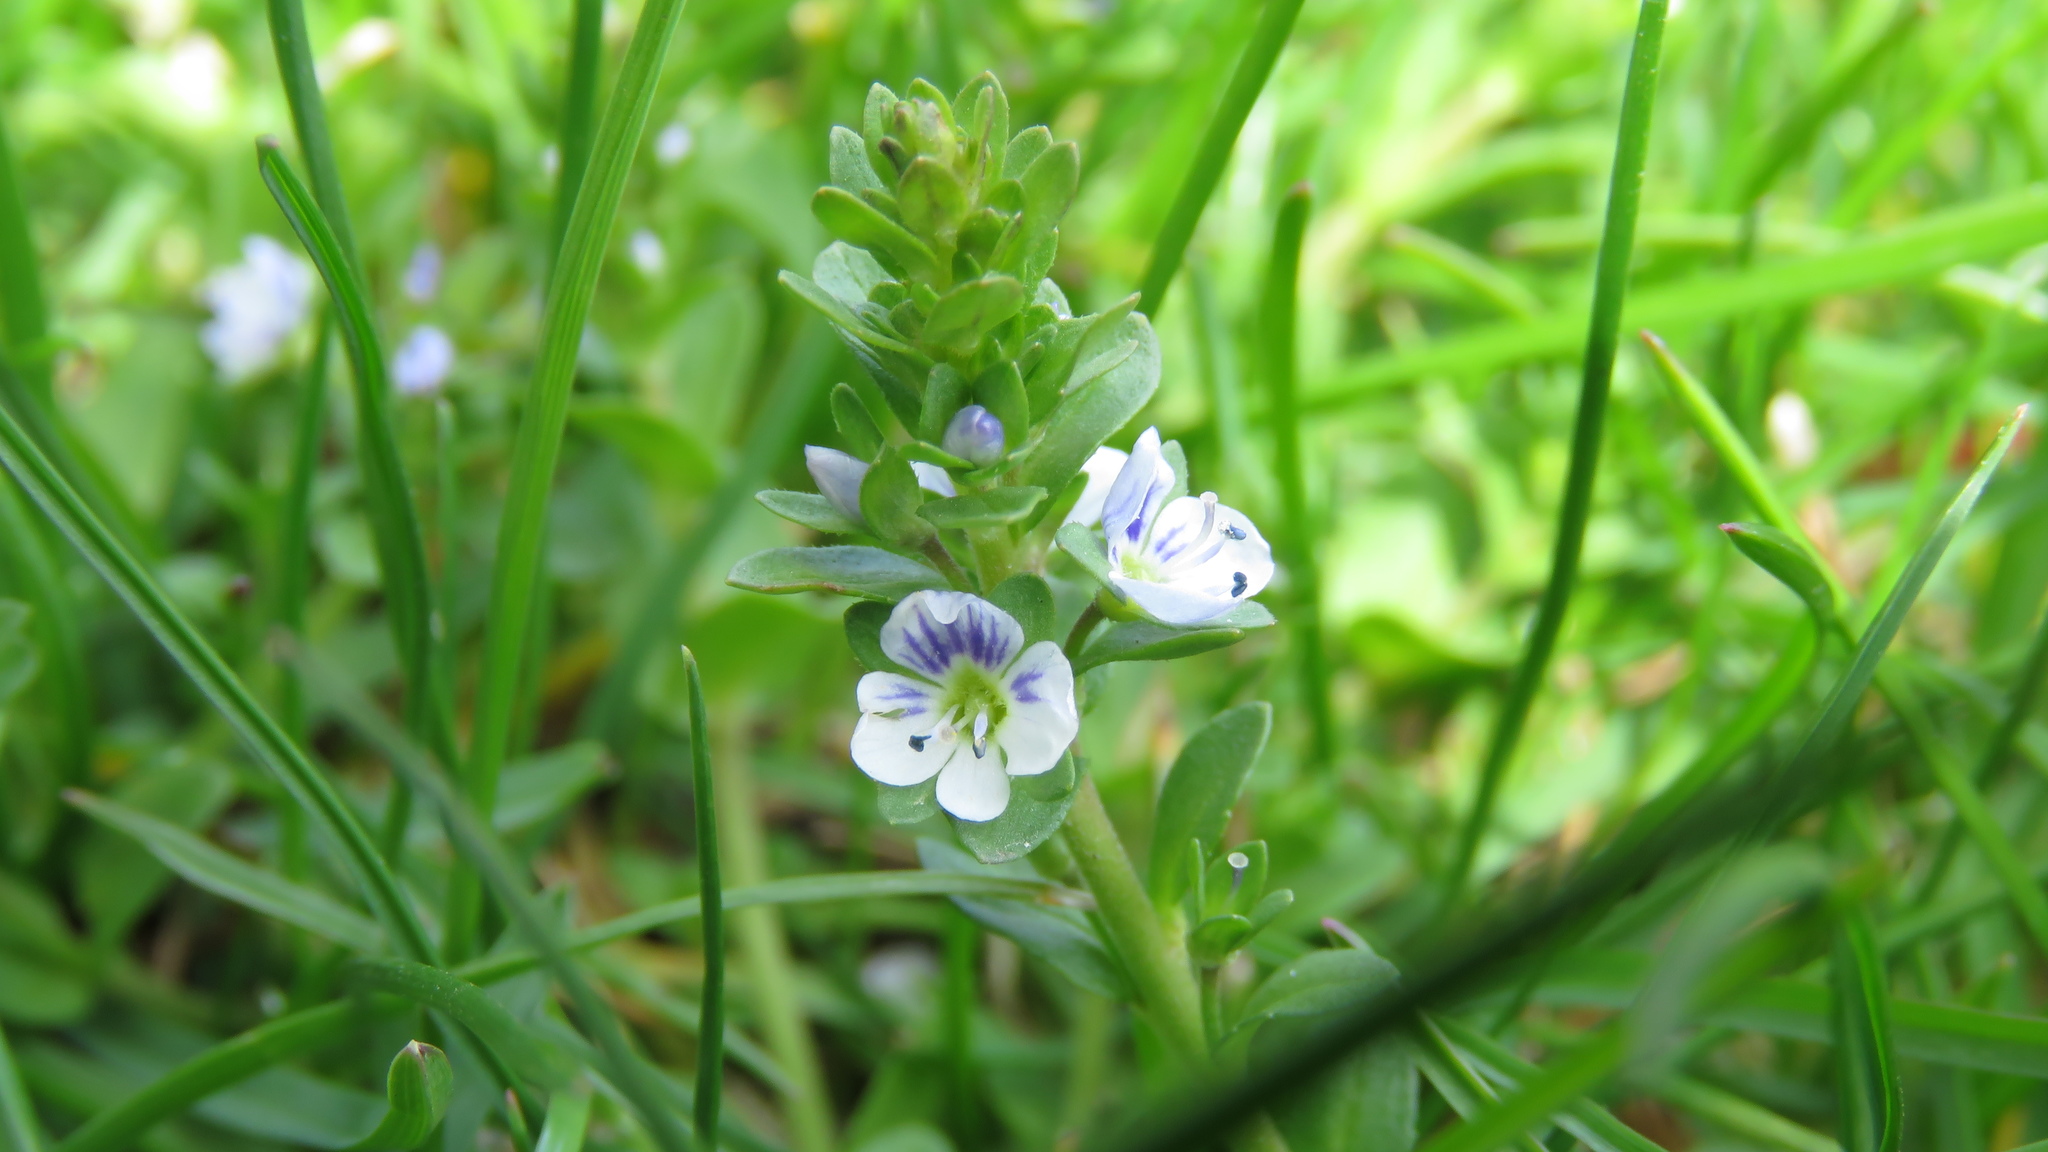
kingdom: Plantae
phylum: Tracheophyta
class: Magnoliopsida
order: Lamiales
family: Plantaginaceae
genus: Veronica
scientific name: Veronica serpyllifolia
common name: Thyme-leaved speedwell
